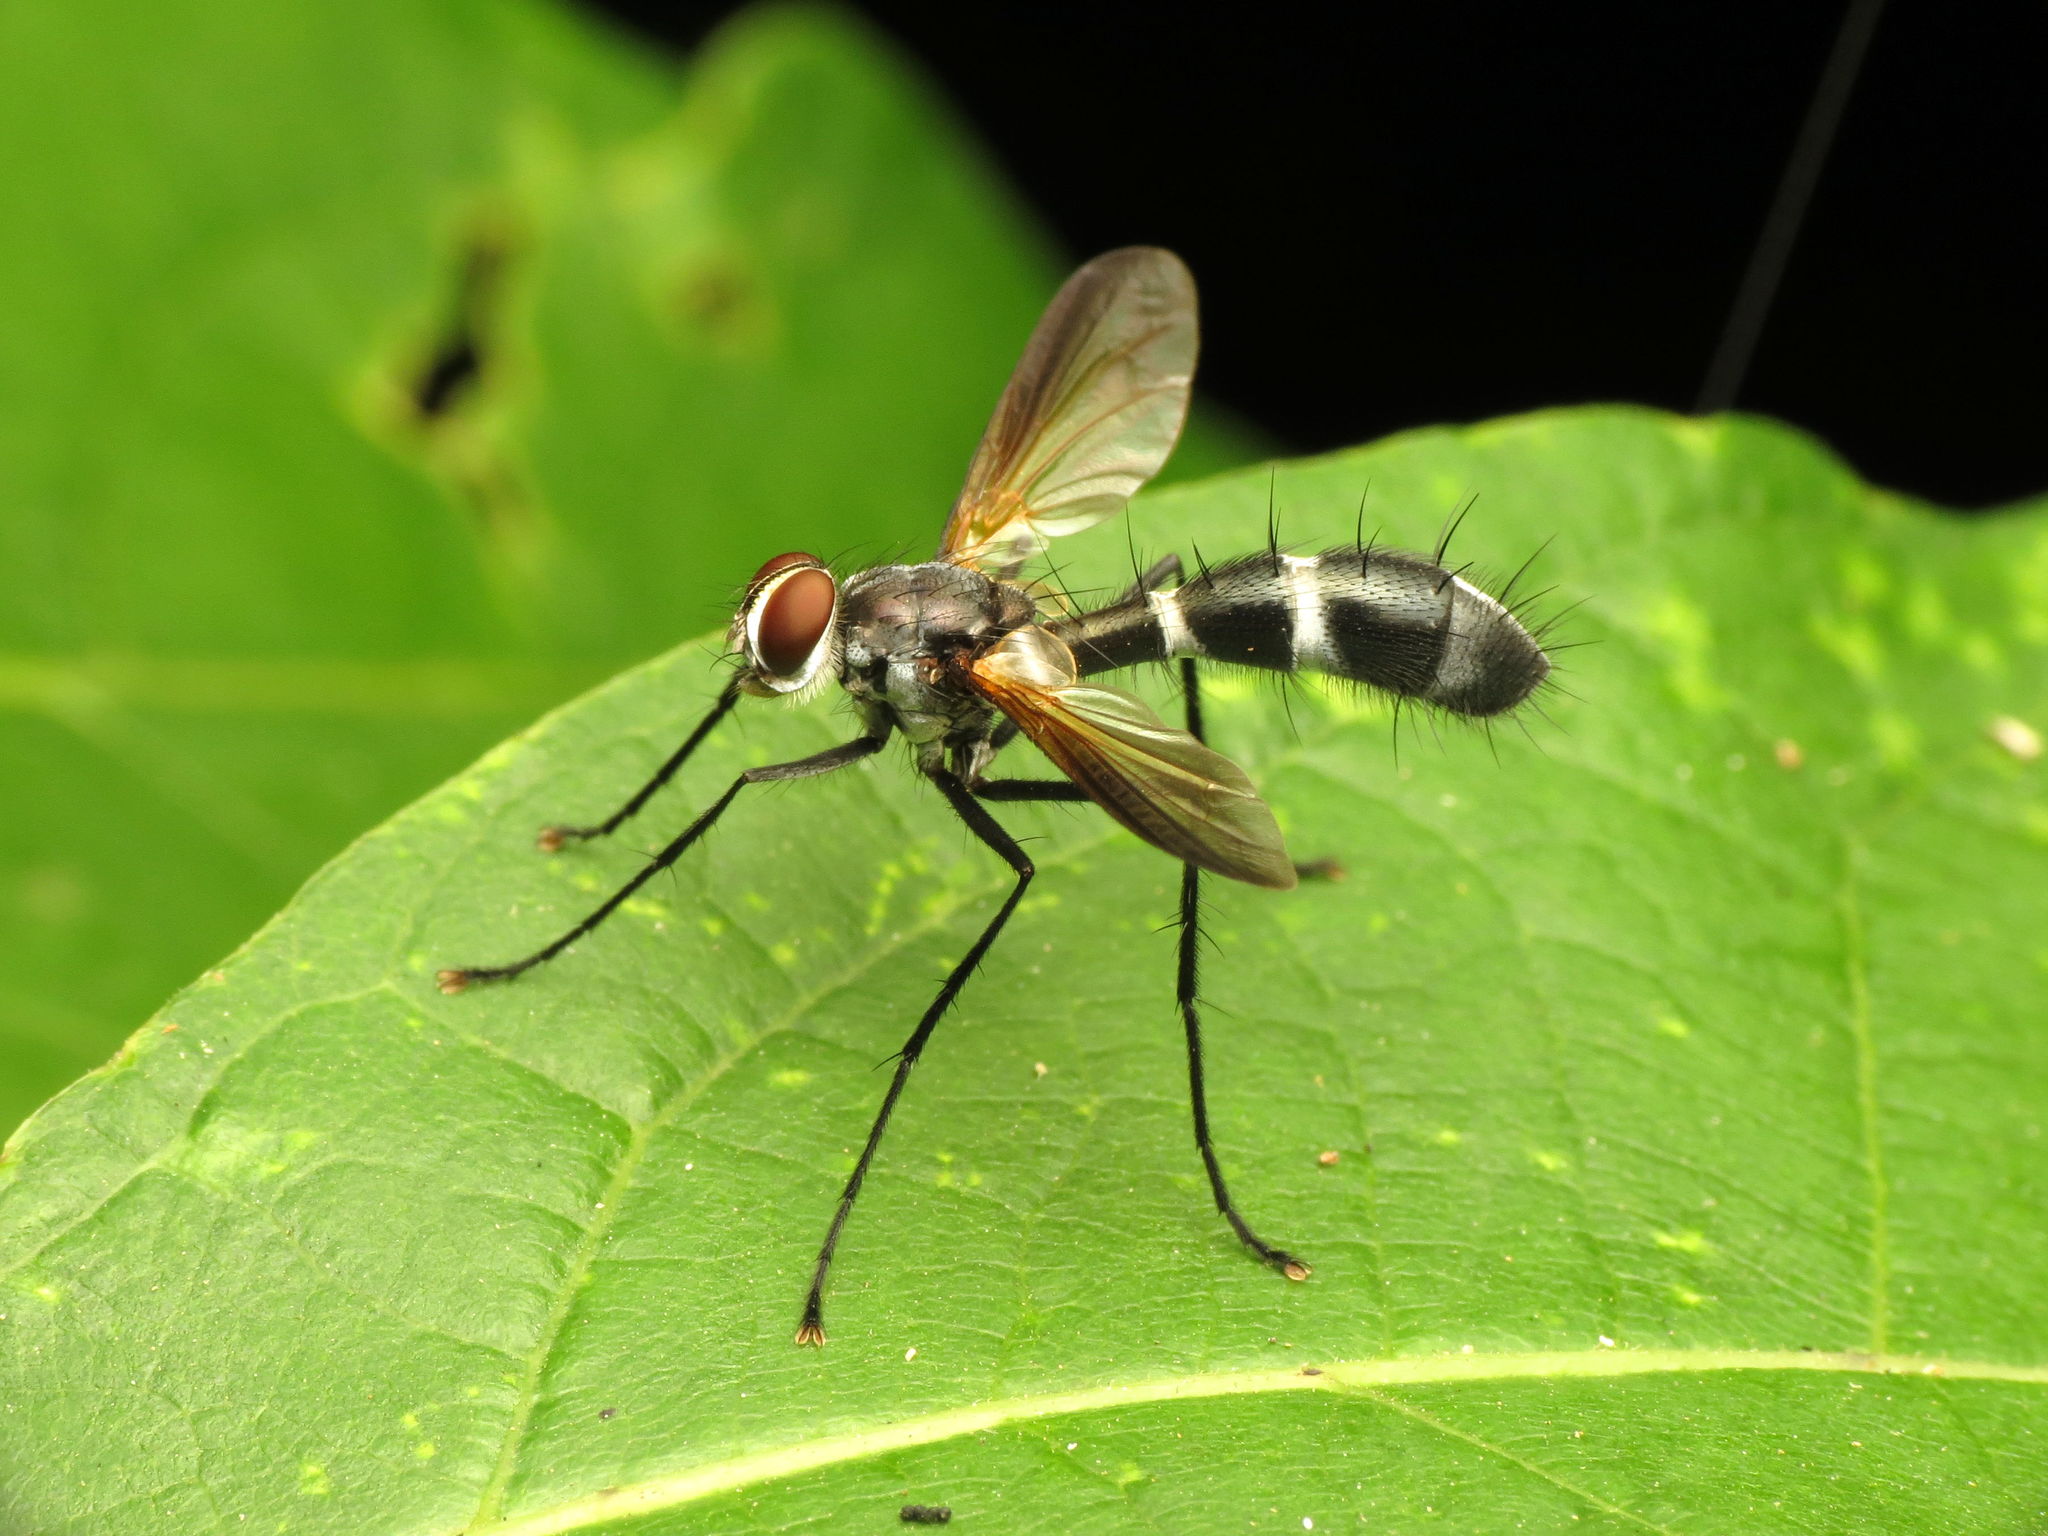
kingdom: Animalia
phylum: Arthropoda
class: Insecta
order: Diptera
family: Tachinidae
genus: Cordyligaster
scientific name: Cordyligaster septentrionalis
